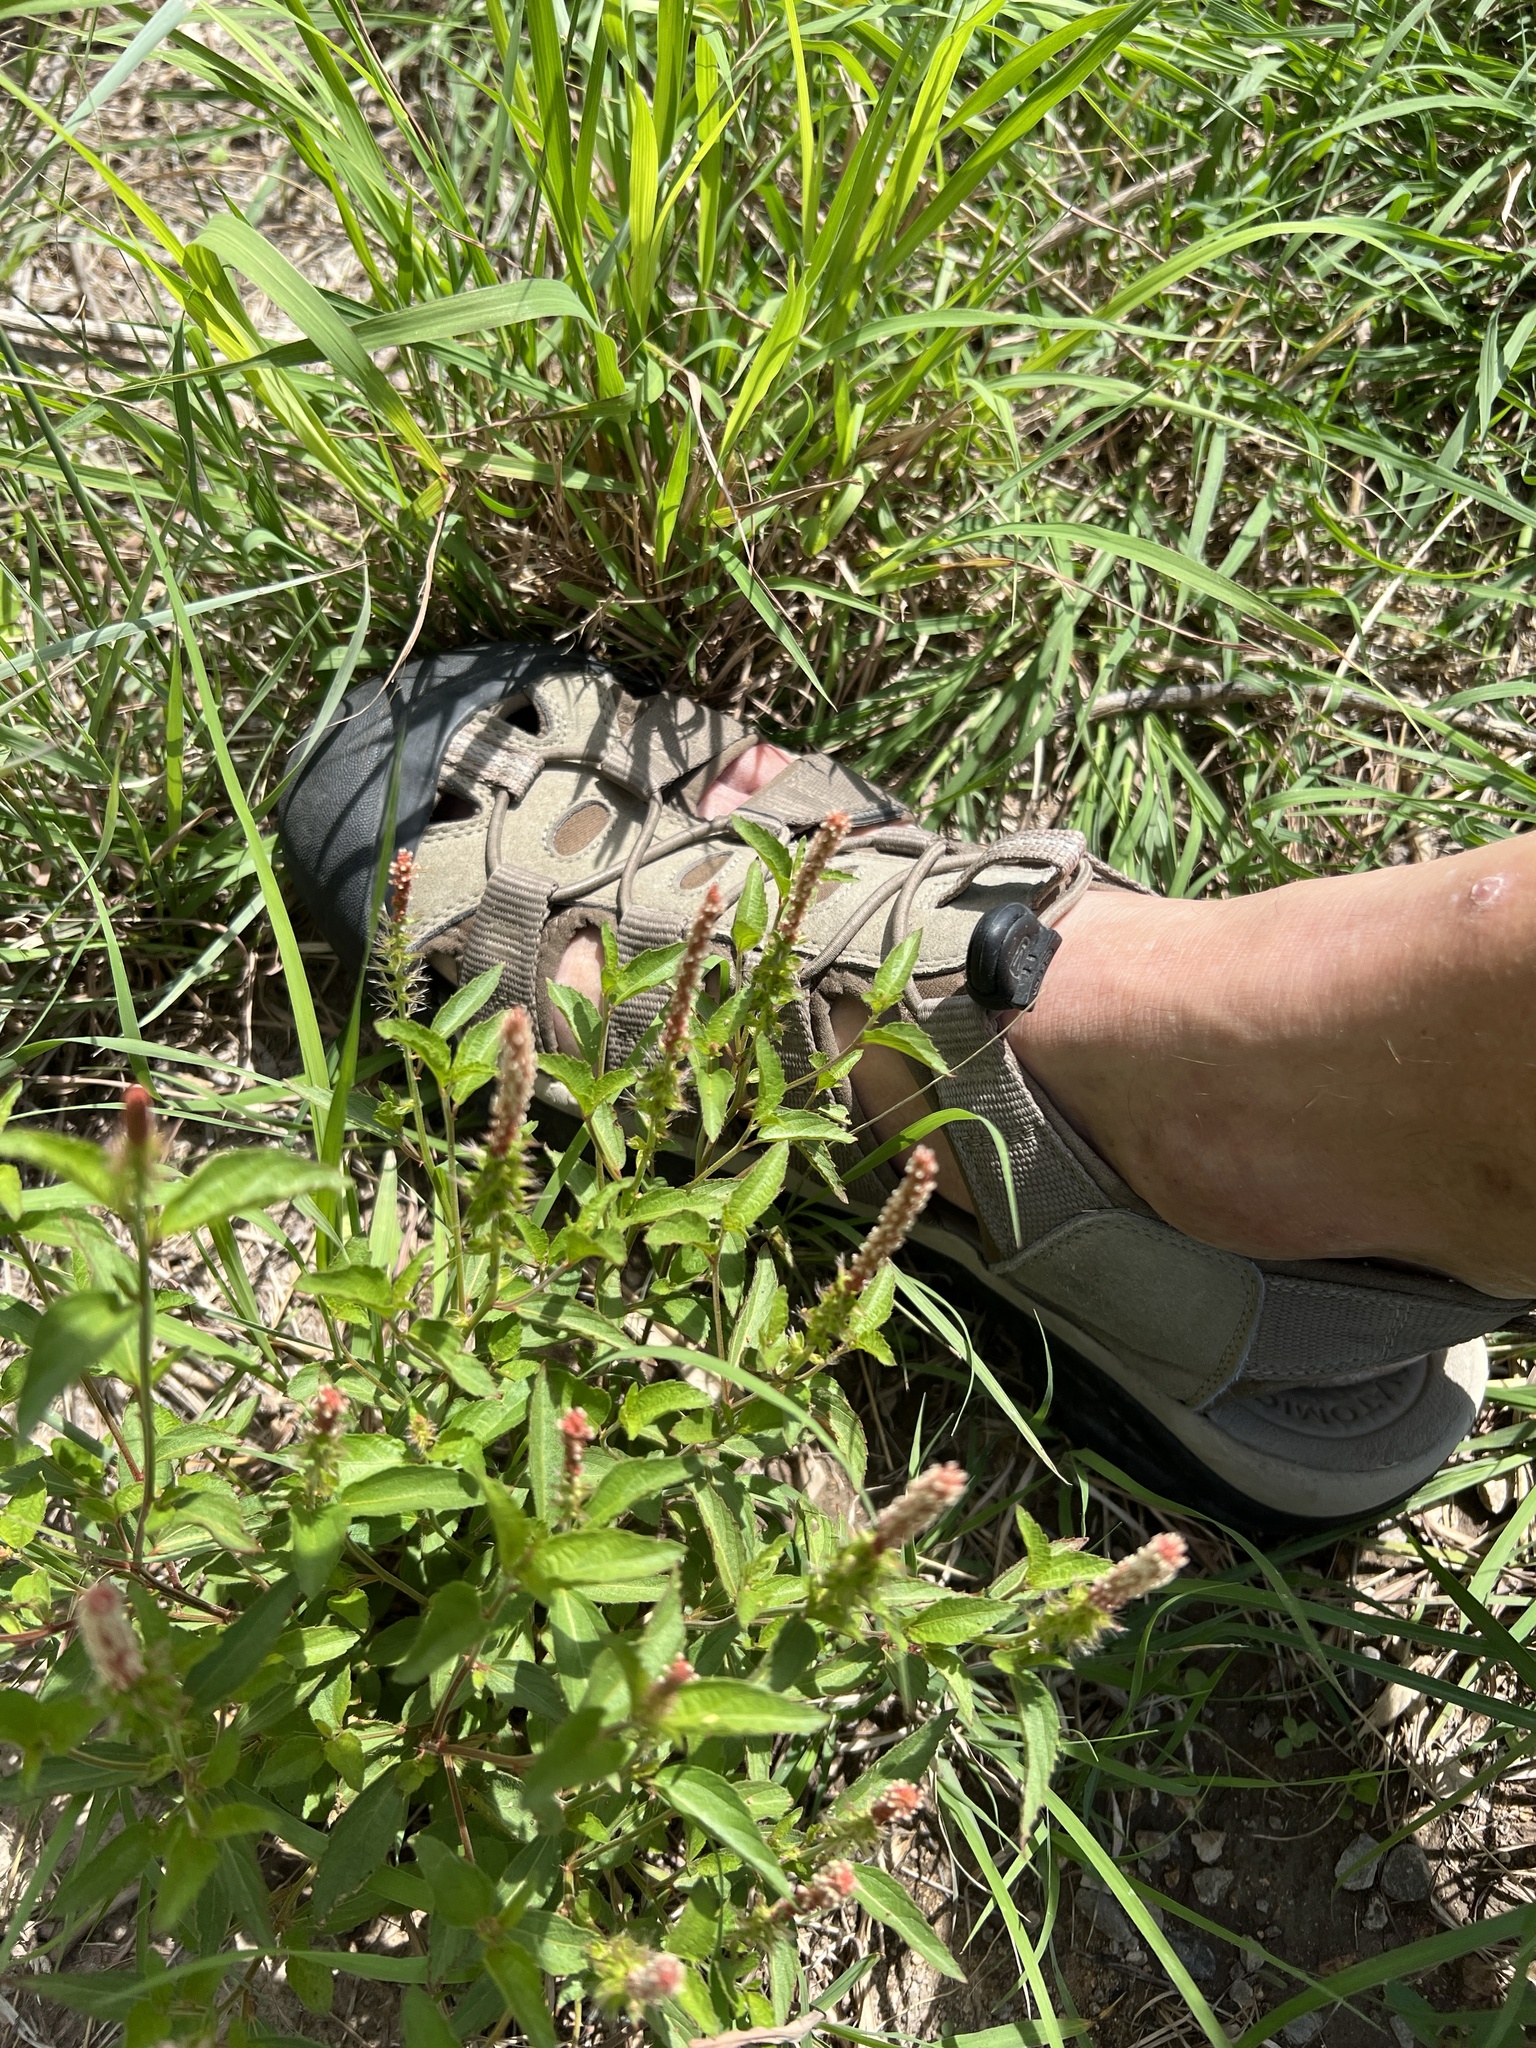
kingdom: Plantae
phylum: Tracheophyta
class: Magnoliopsida
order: Malpighiales
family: Euphorbiaceae
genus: Acalypha
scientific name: Acalypha phleoides
